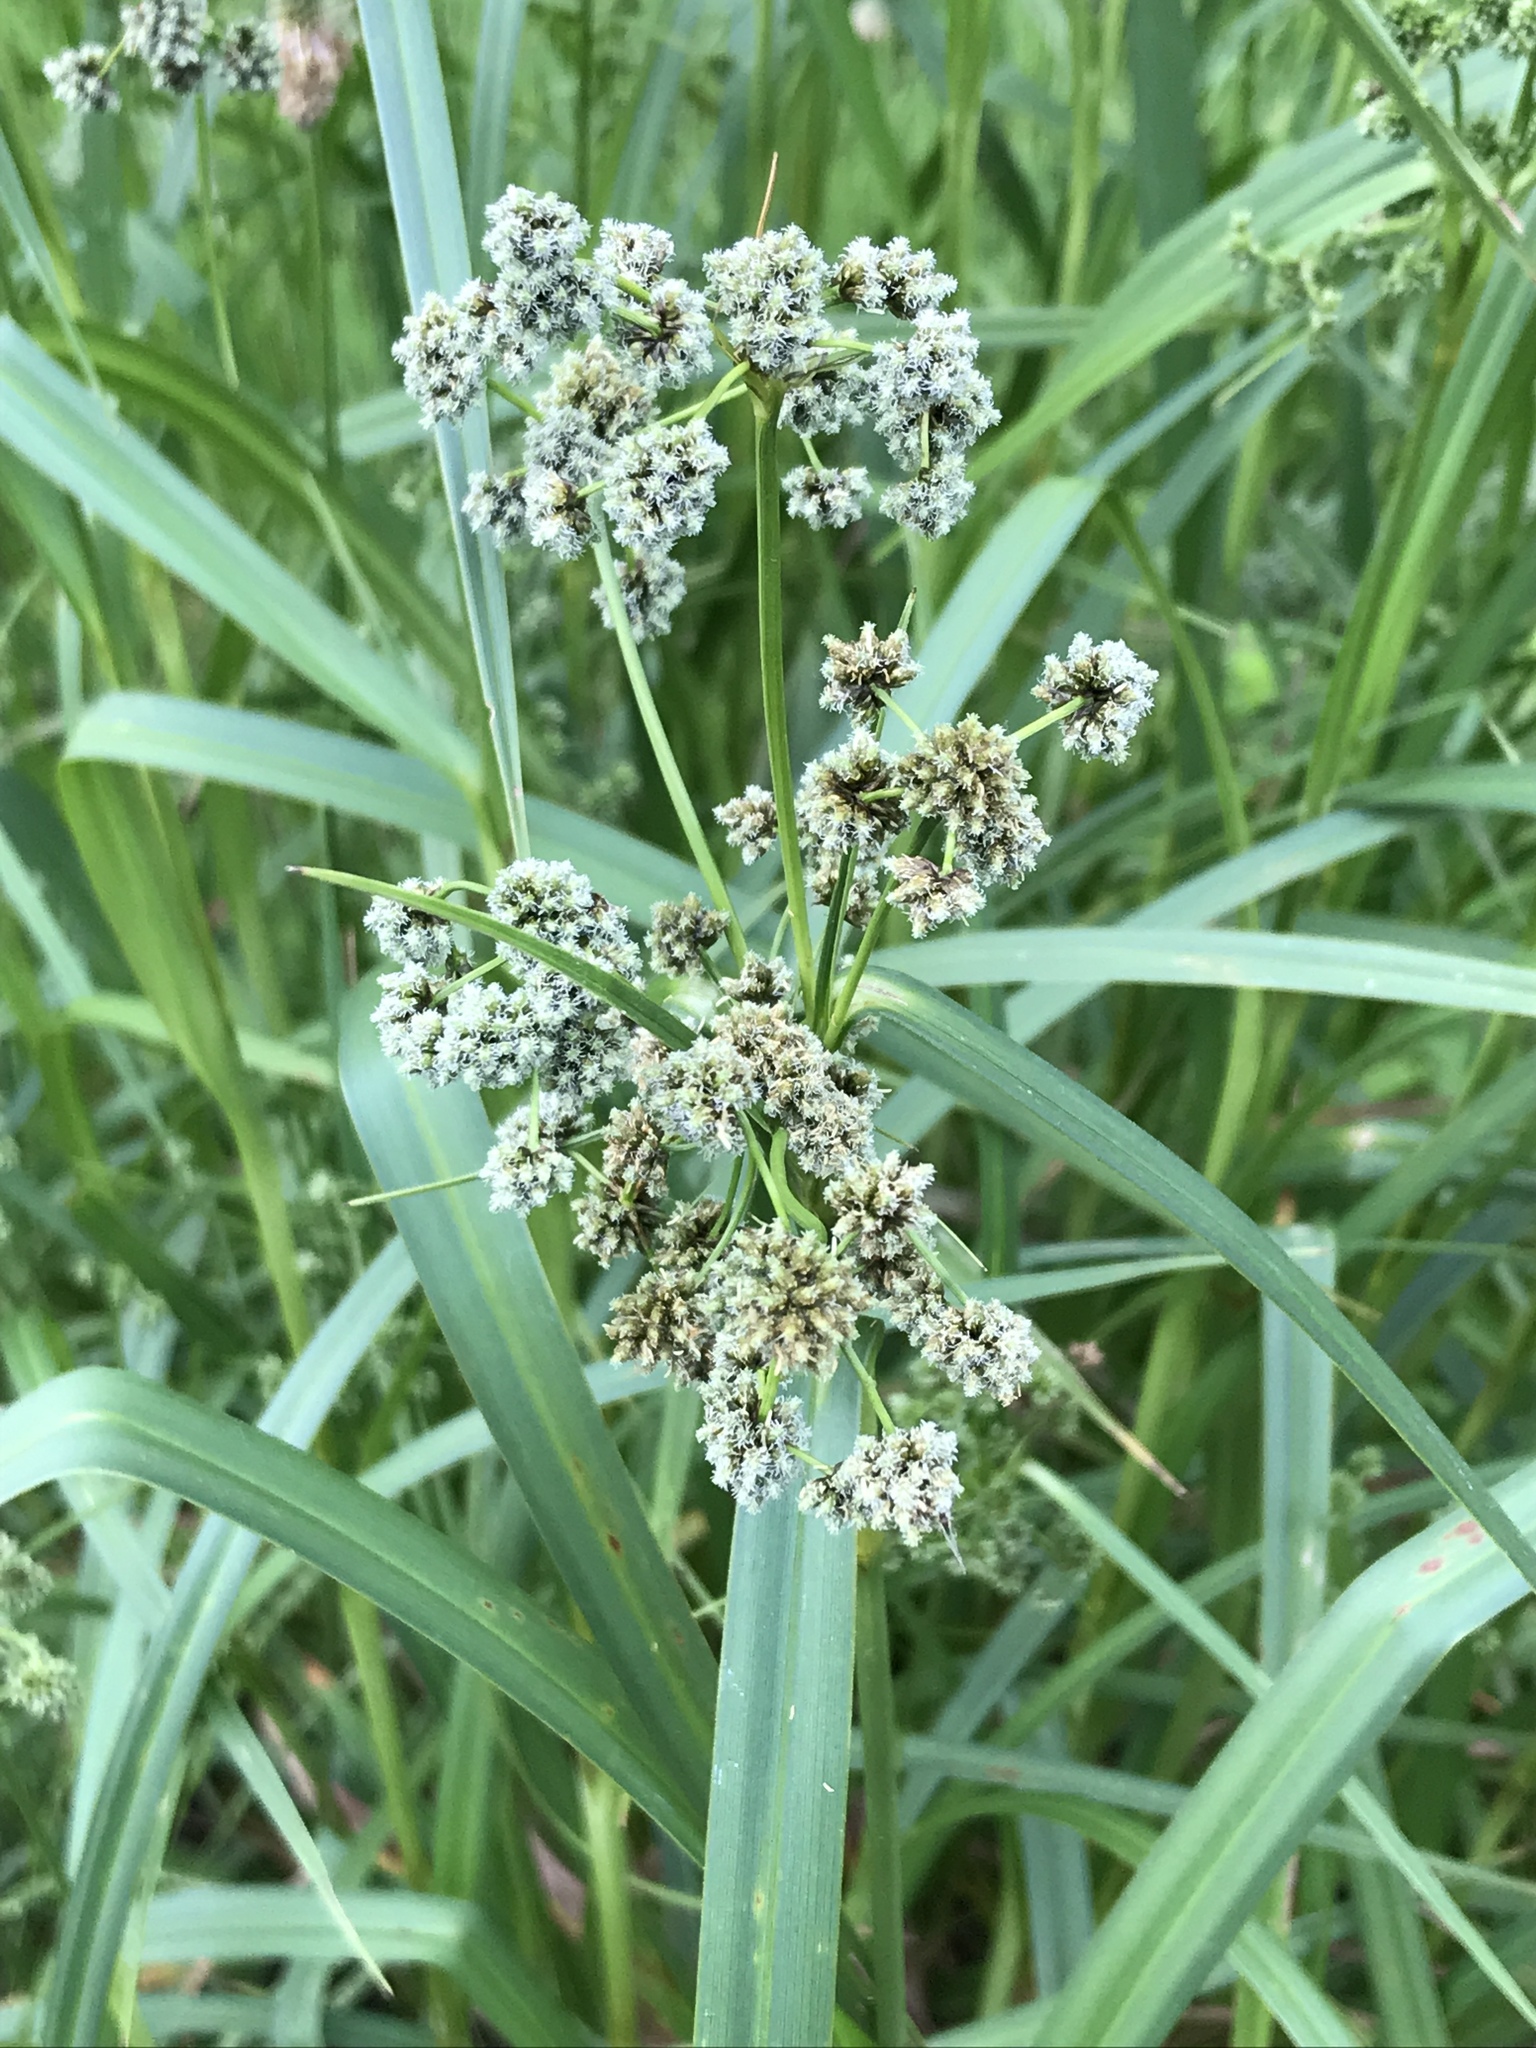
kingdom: Plantae
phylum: Tracheophyta
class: Liliopsida
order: Poales
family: Cyperaceae
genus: Scirpus
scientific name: Scirpus atrovirens
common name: Black bulrush
